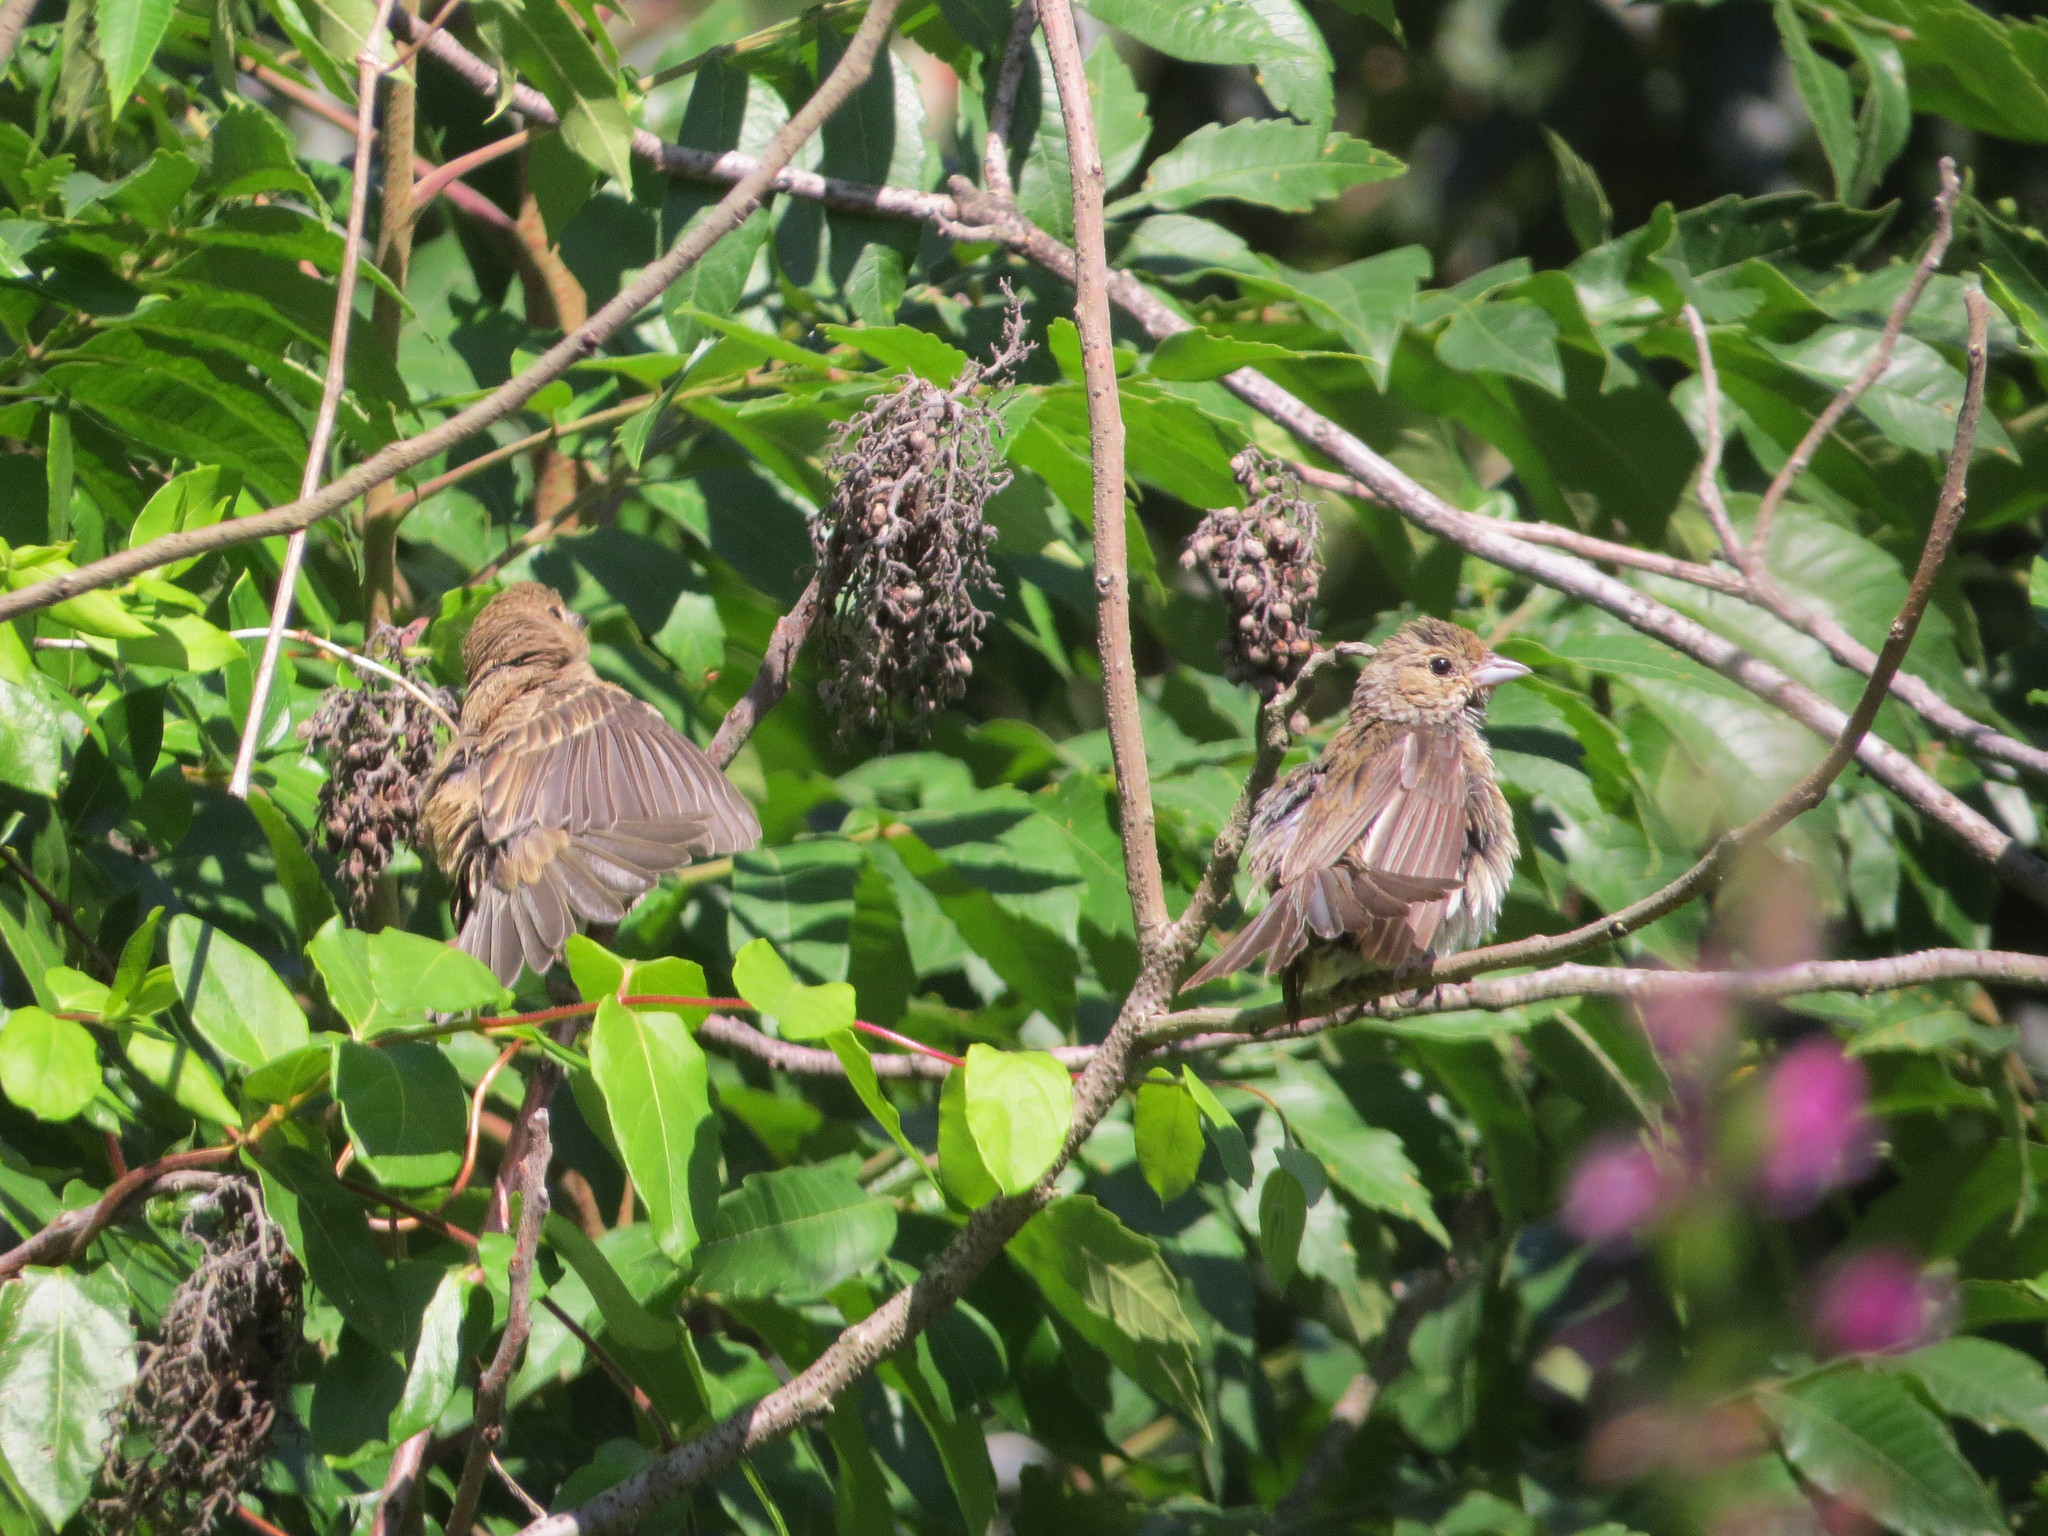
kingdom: Animalia
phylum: Chordata
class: Aves
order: Passeriformes
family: Cardinalidae
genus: Passerina
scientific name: Passerina cyanea
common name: Indigo bunting
